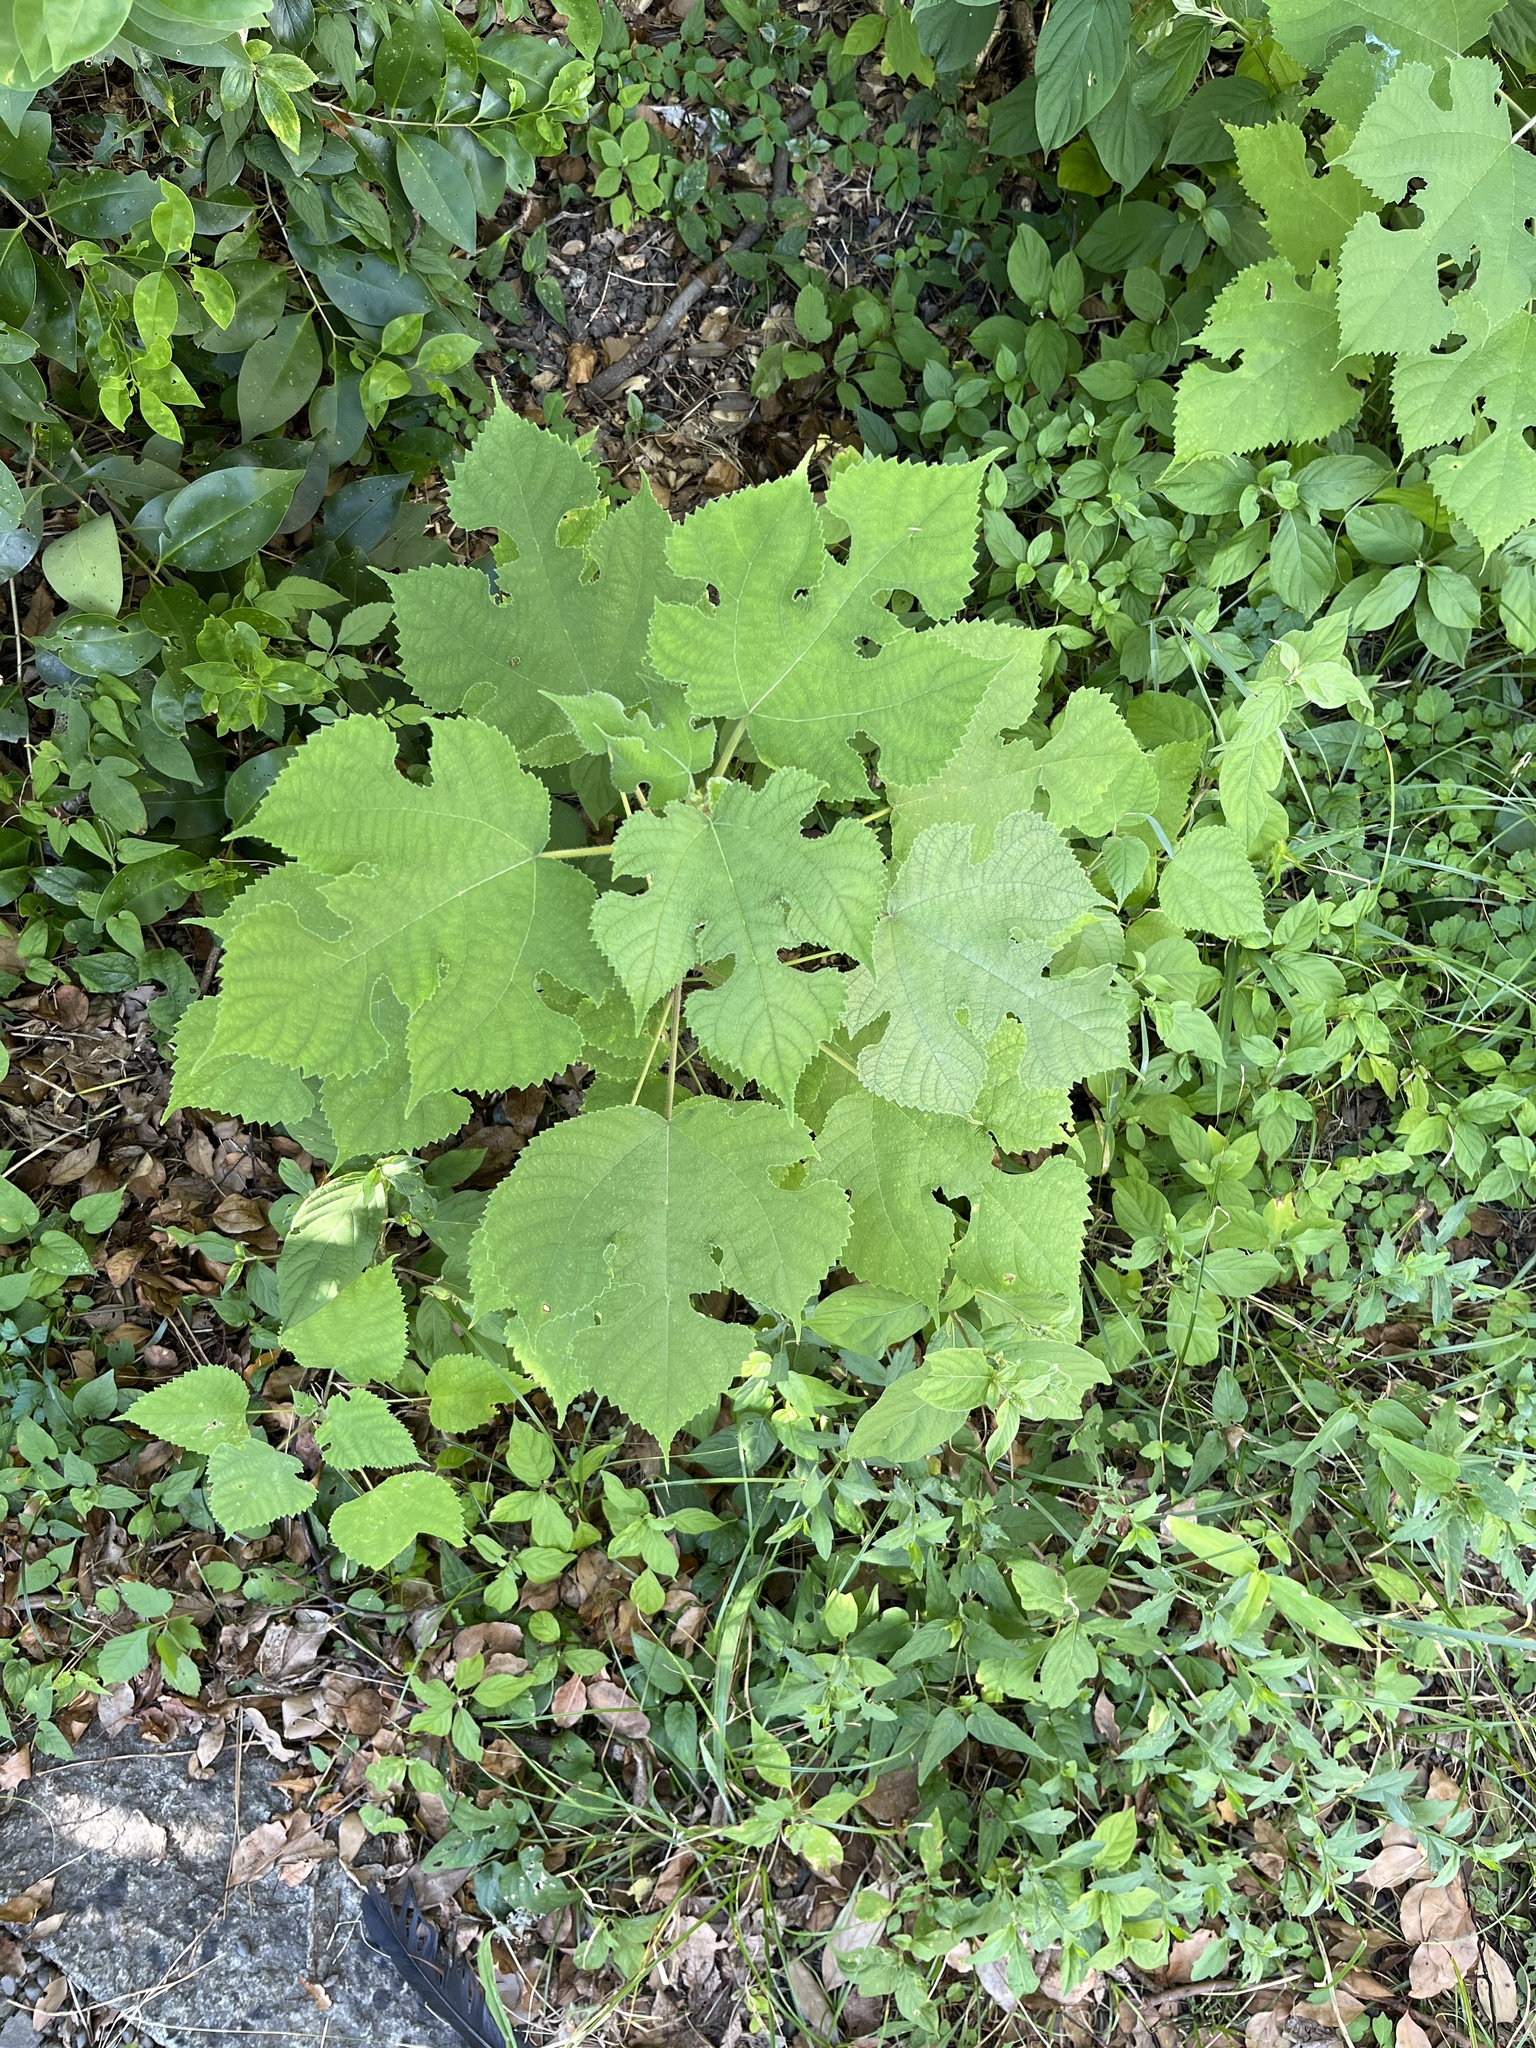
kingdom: Plantae
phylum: Tracheophyta
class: Magnoliopsida
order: Rosales
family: Moraceae
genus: Broussonetia
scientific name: Broussonetia papyrifera
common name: Paper mulberry
